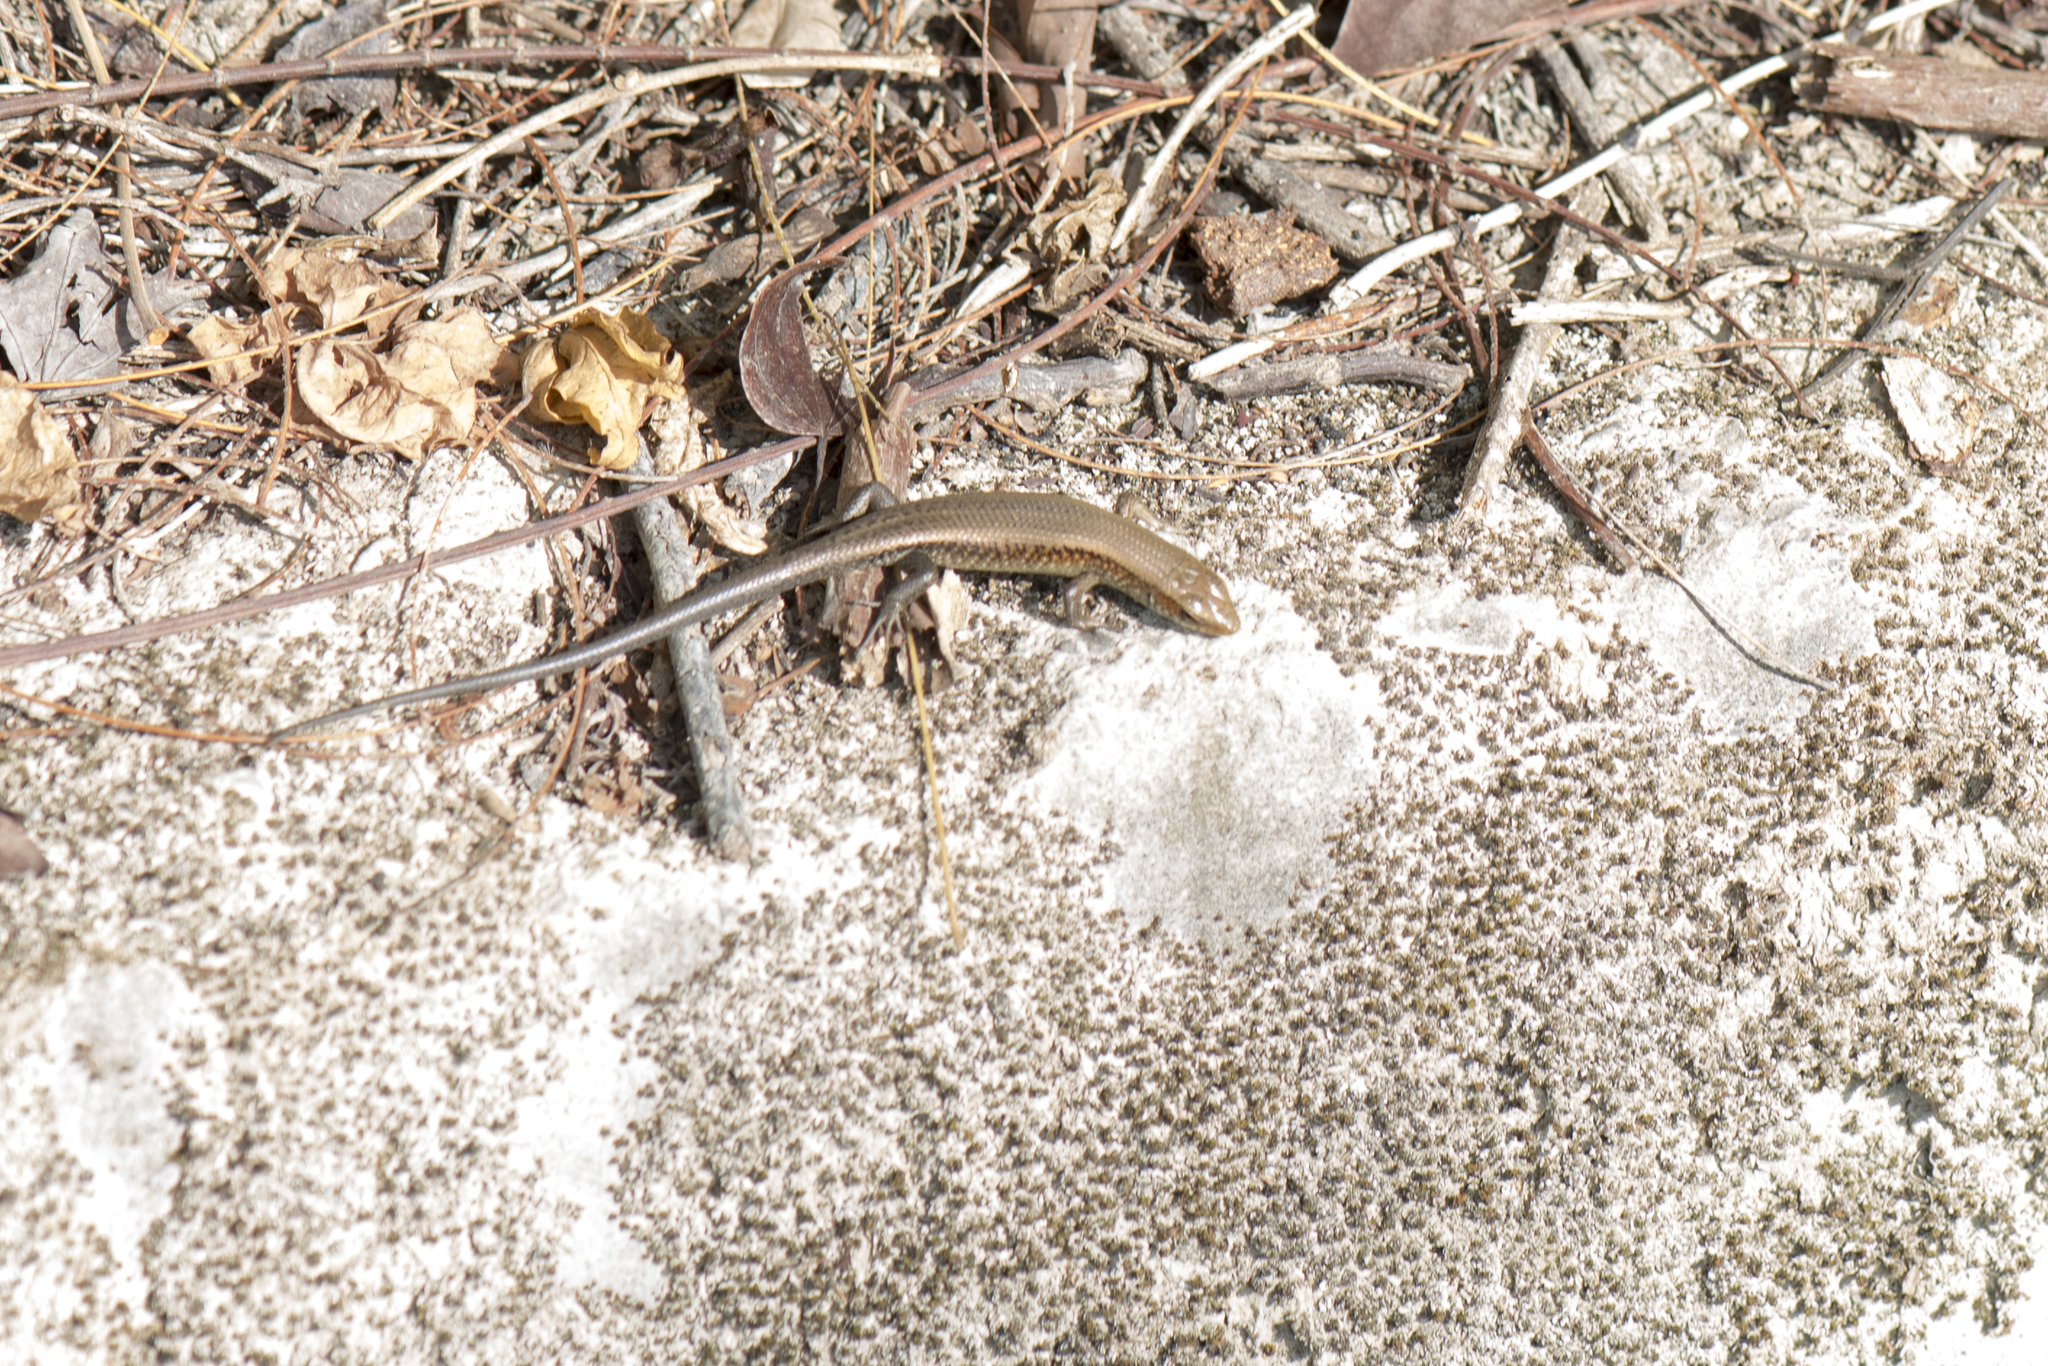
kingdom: Animalia
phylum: Chordata
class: Squamata
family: Scincidae
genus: Eutropis
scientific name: Eutropis multifasciata
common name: Common mabuya
